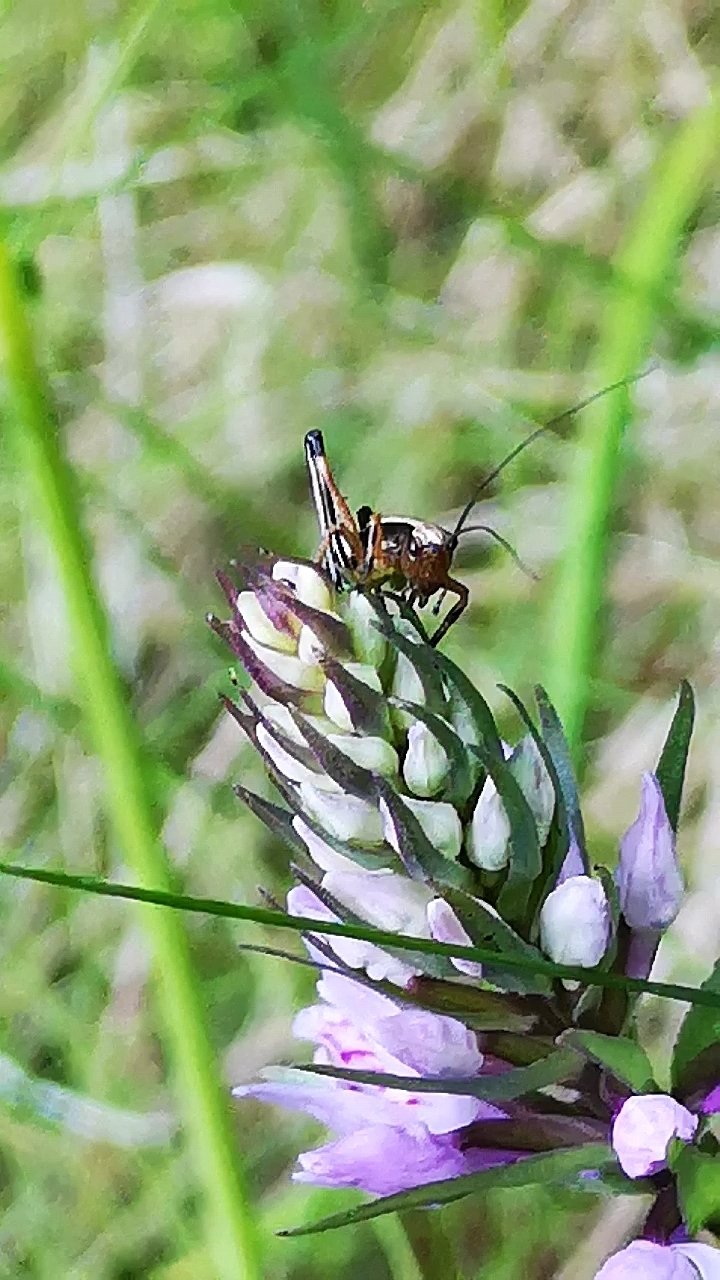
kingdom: Animalia
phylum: Arthropoda
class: Insecta
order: Orthoptera
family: Tettigoniidae
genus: Pholidoptera
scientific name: Pholidoptera griseoaptera
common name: Dark bush-cricket
